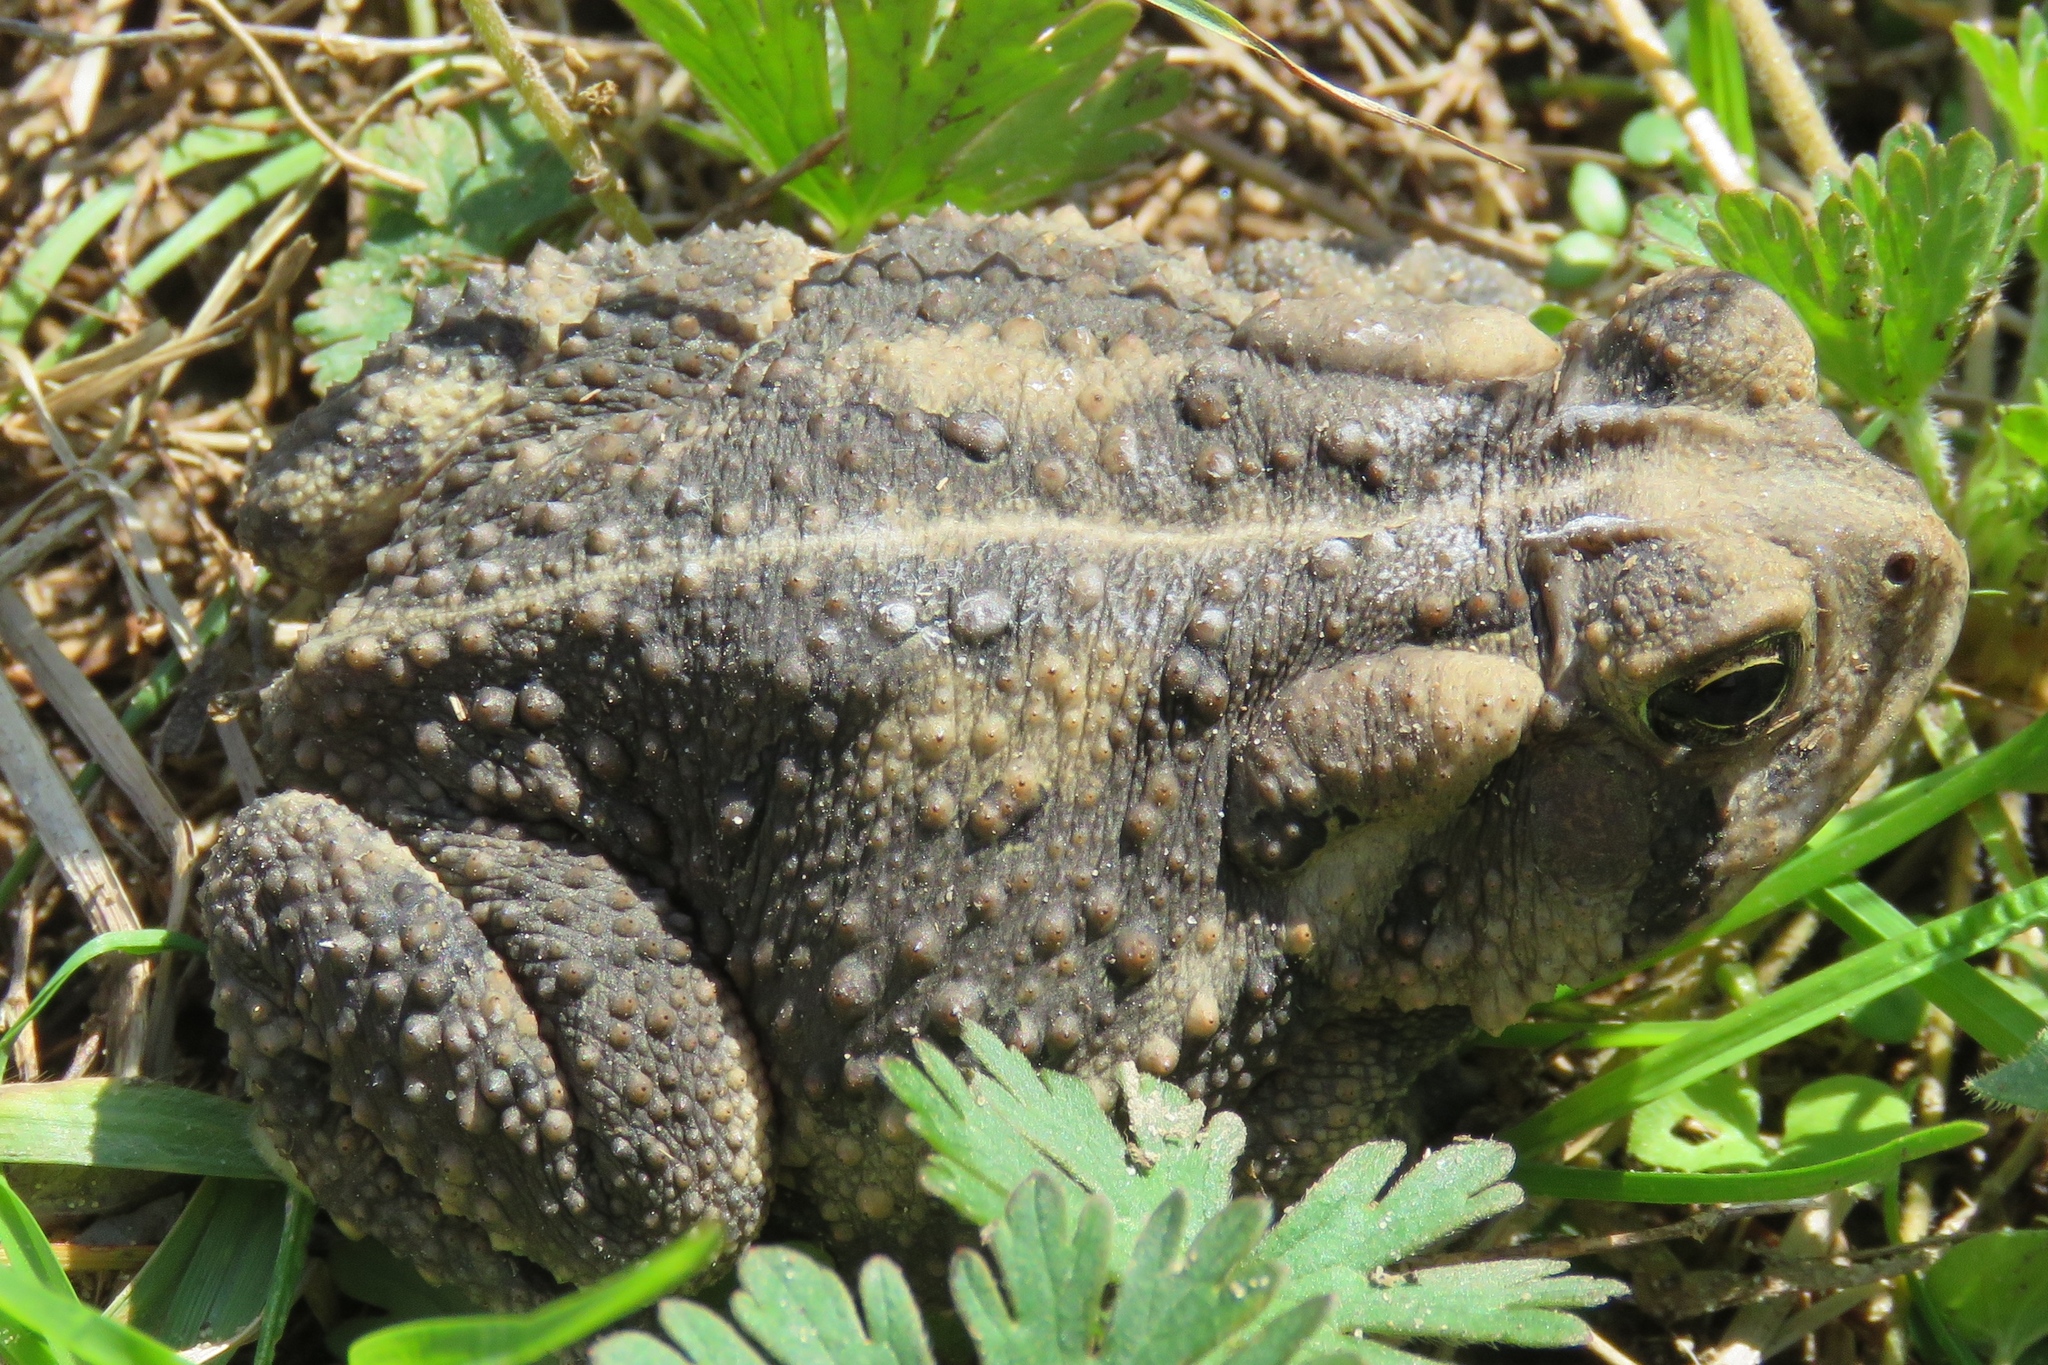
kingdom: Animalia
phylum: Chordata
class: Amphibia
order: Anura
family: Bufonidae
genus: Incilius
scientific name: Incilius nebulifer
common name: Gulf coast toad
